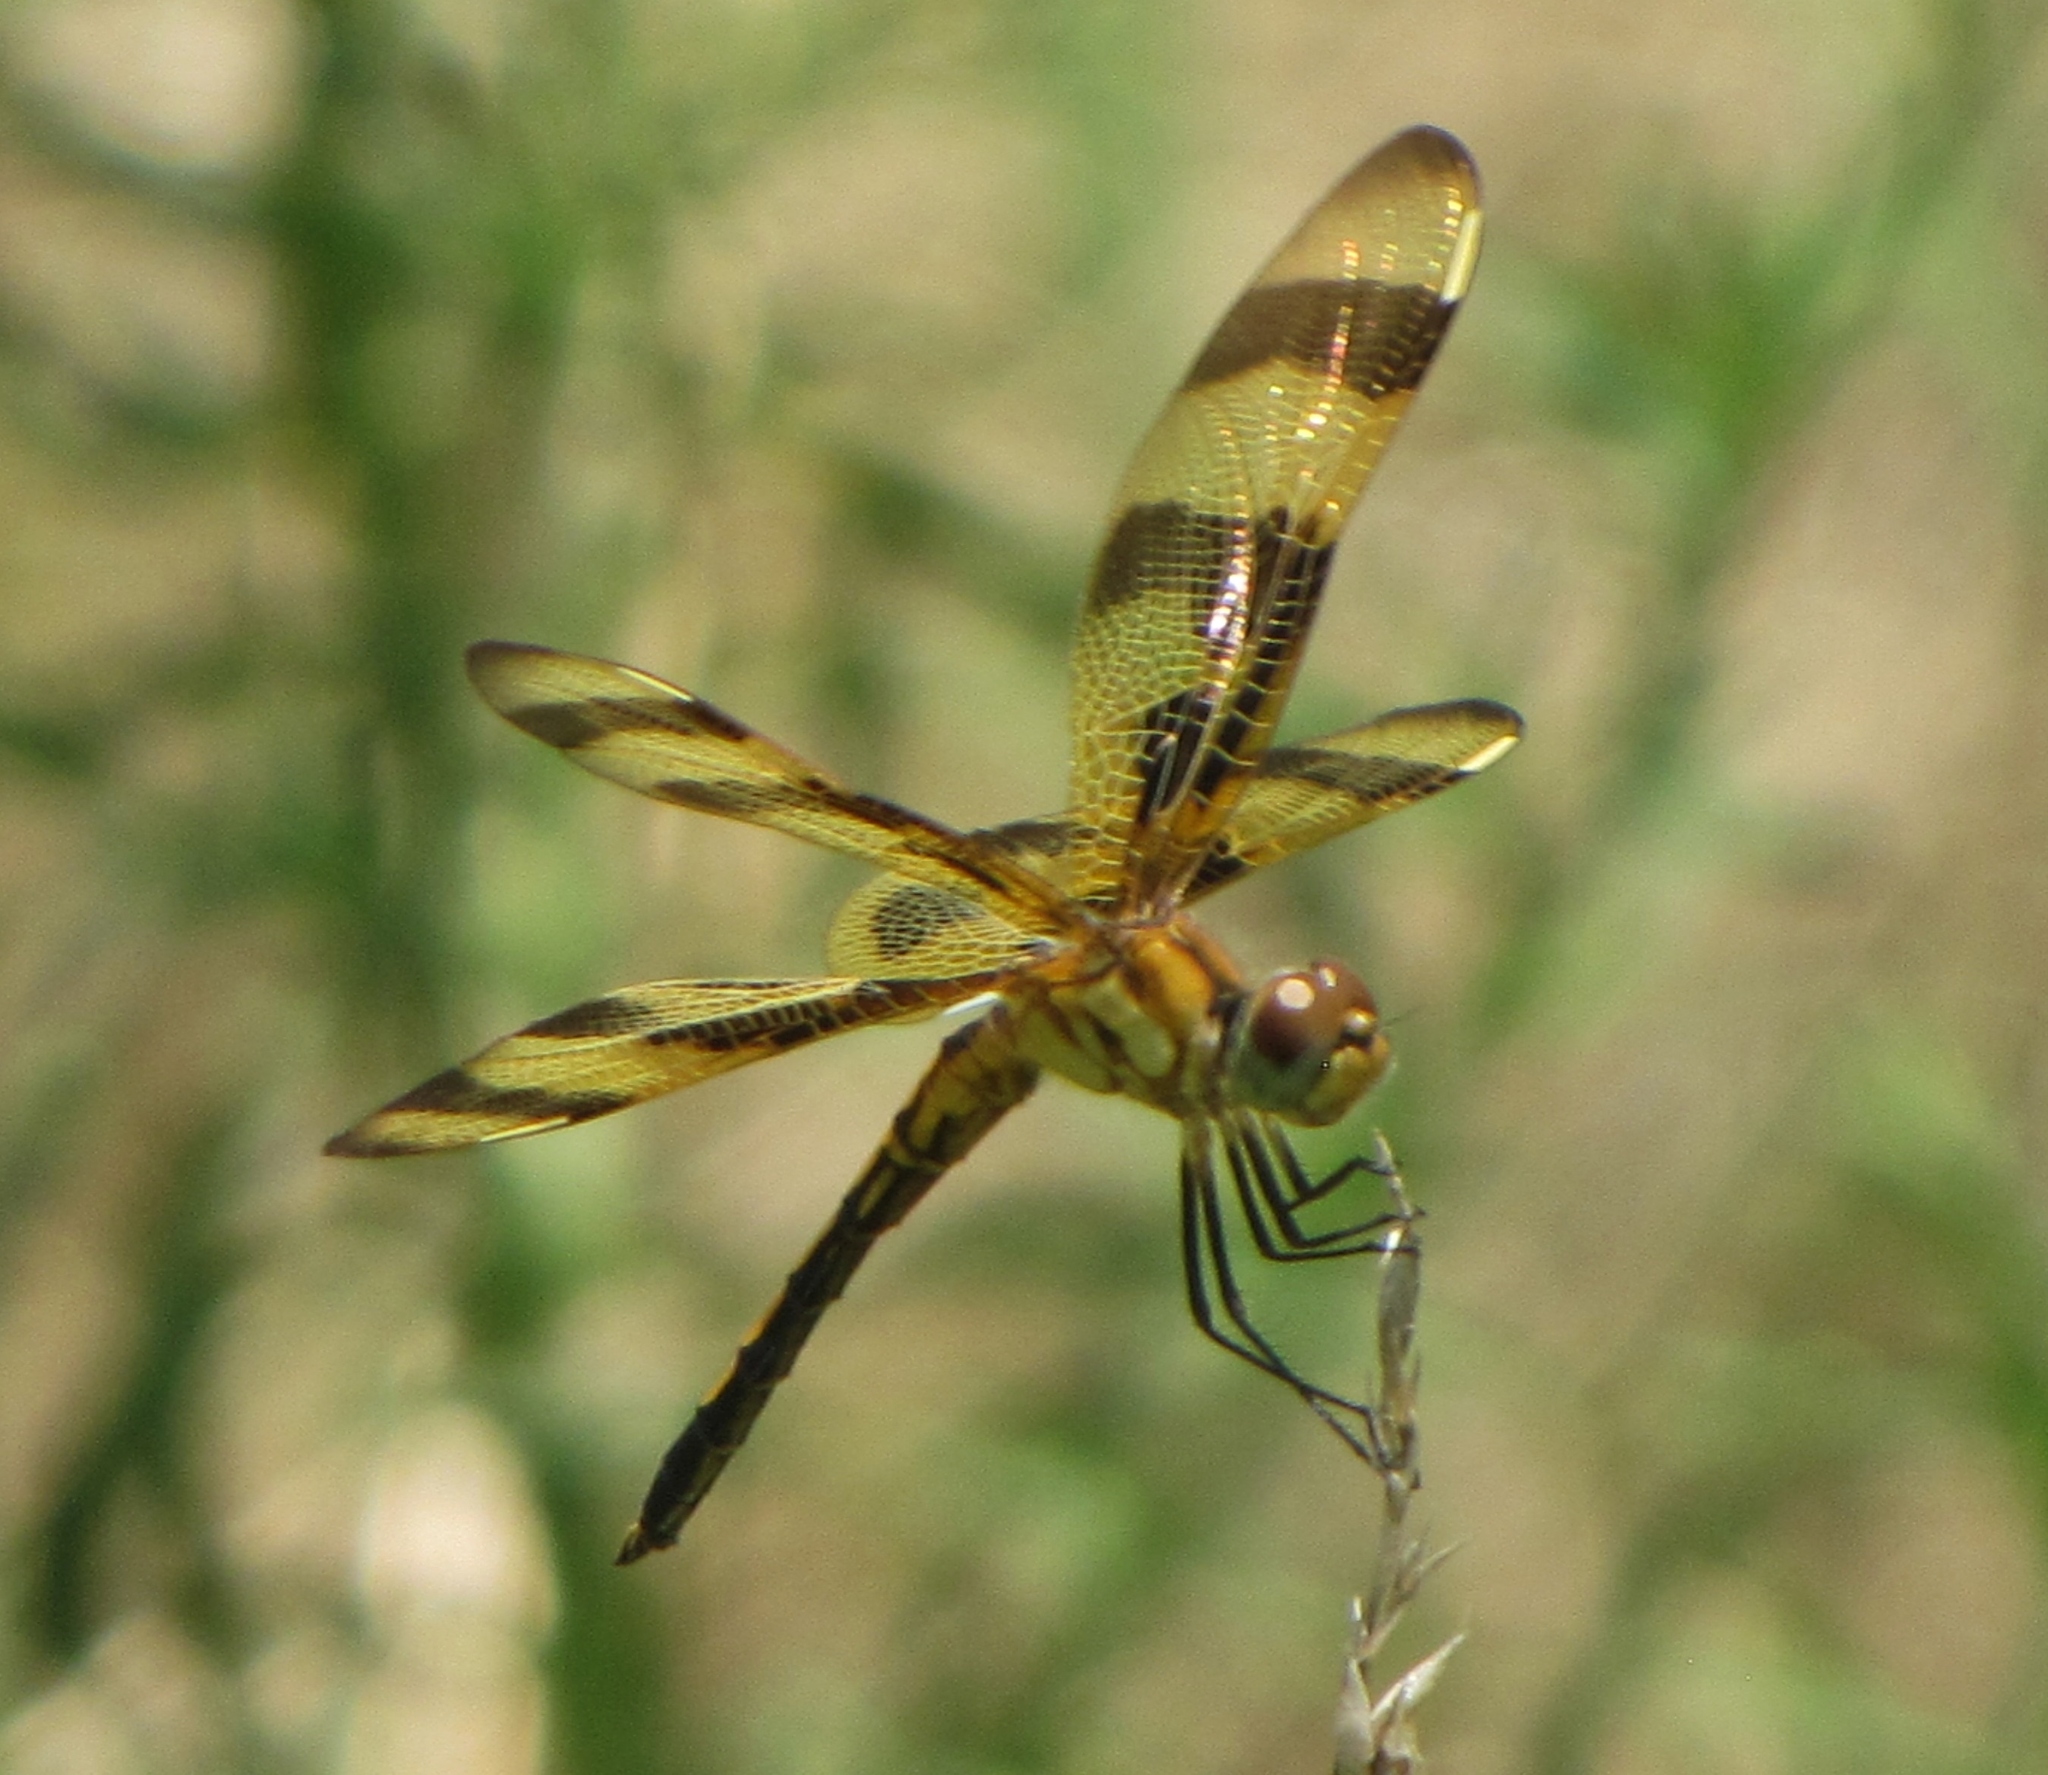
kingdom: Animalia
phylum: Arthropoda
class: Insecta
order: Odonata
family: Libellulidae
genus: Celithemis
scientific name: Celithemis eponina
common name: Halloween pennant
